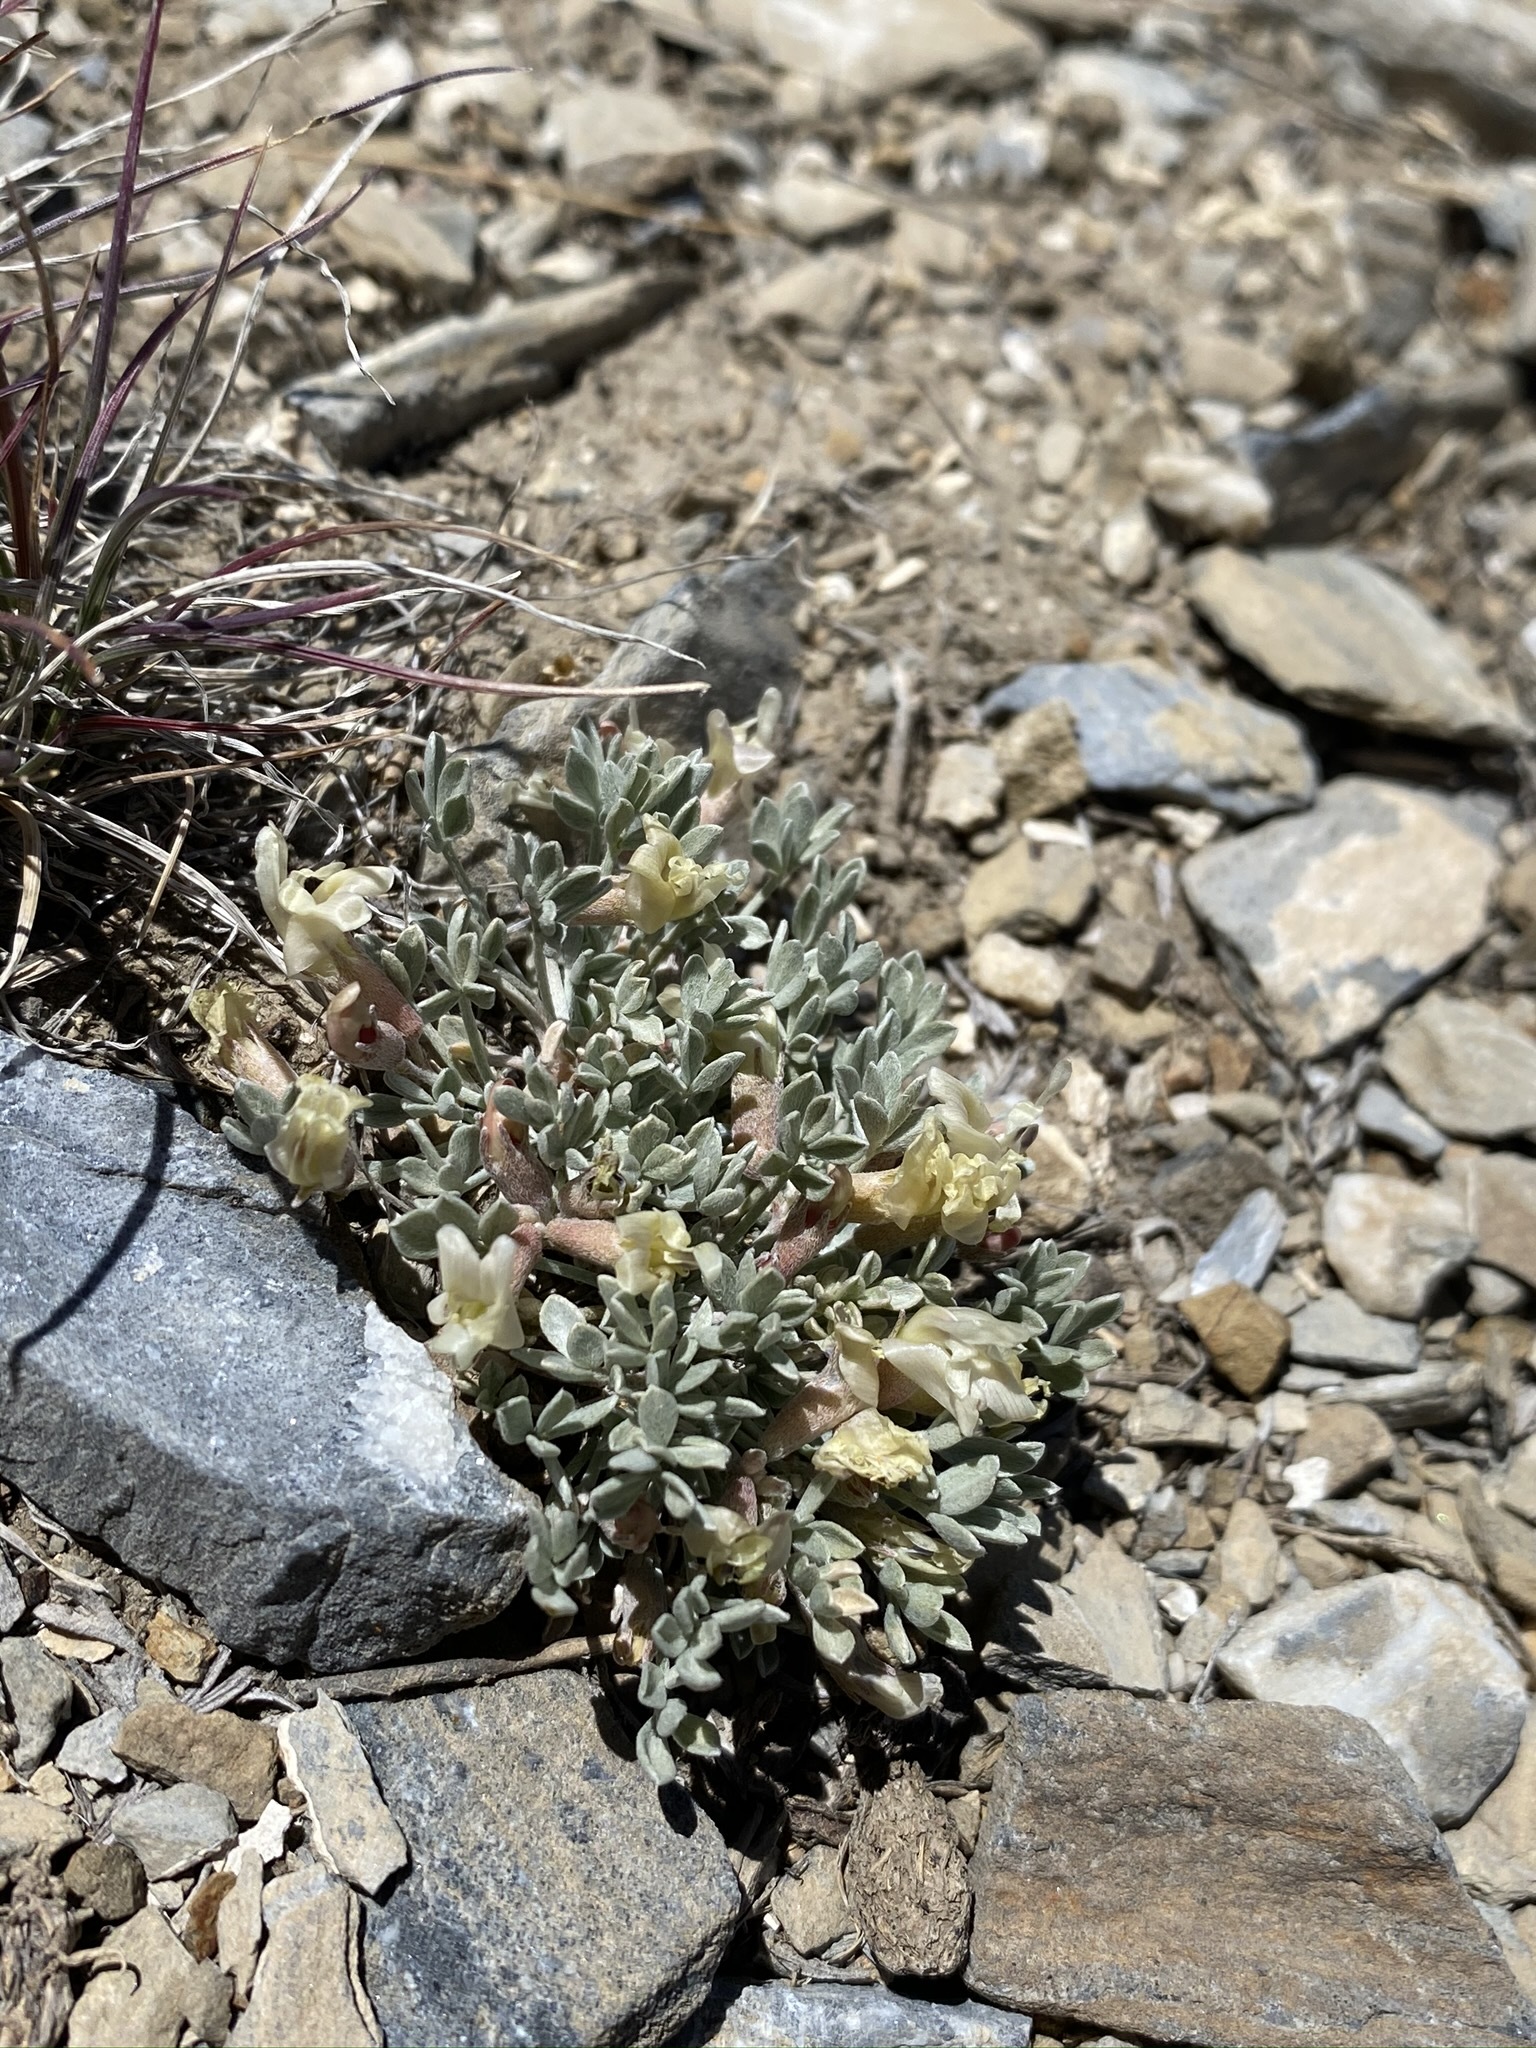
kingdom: Plantae
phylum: Tracheophyta
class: Magnoliopsida
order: Fabales
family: Fabaceae
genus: Astragalus
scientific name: Astragalus calycosus
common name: King's milkvetch
